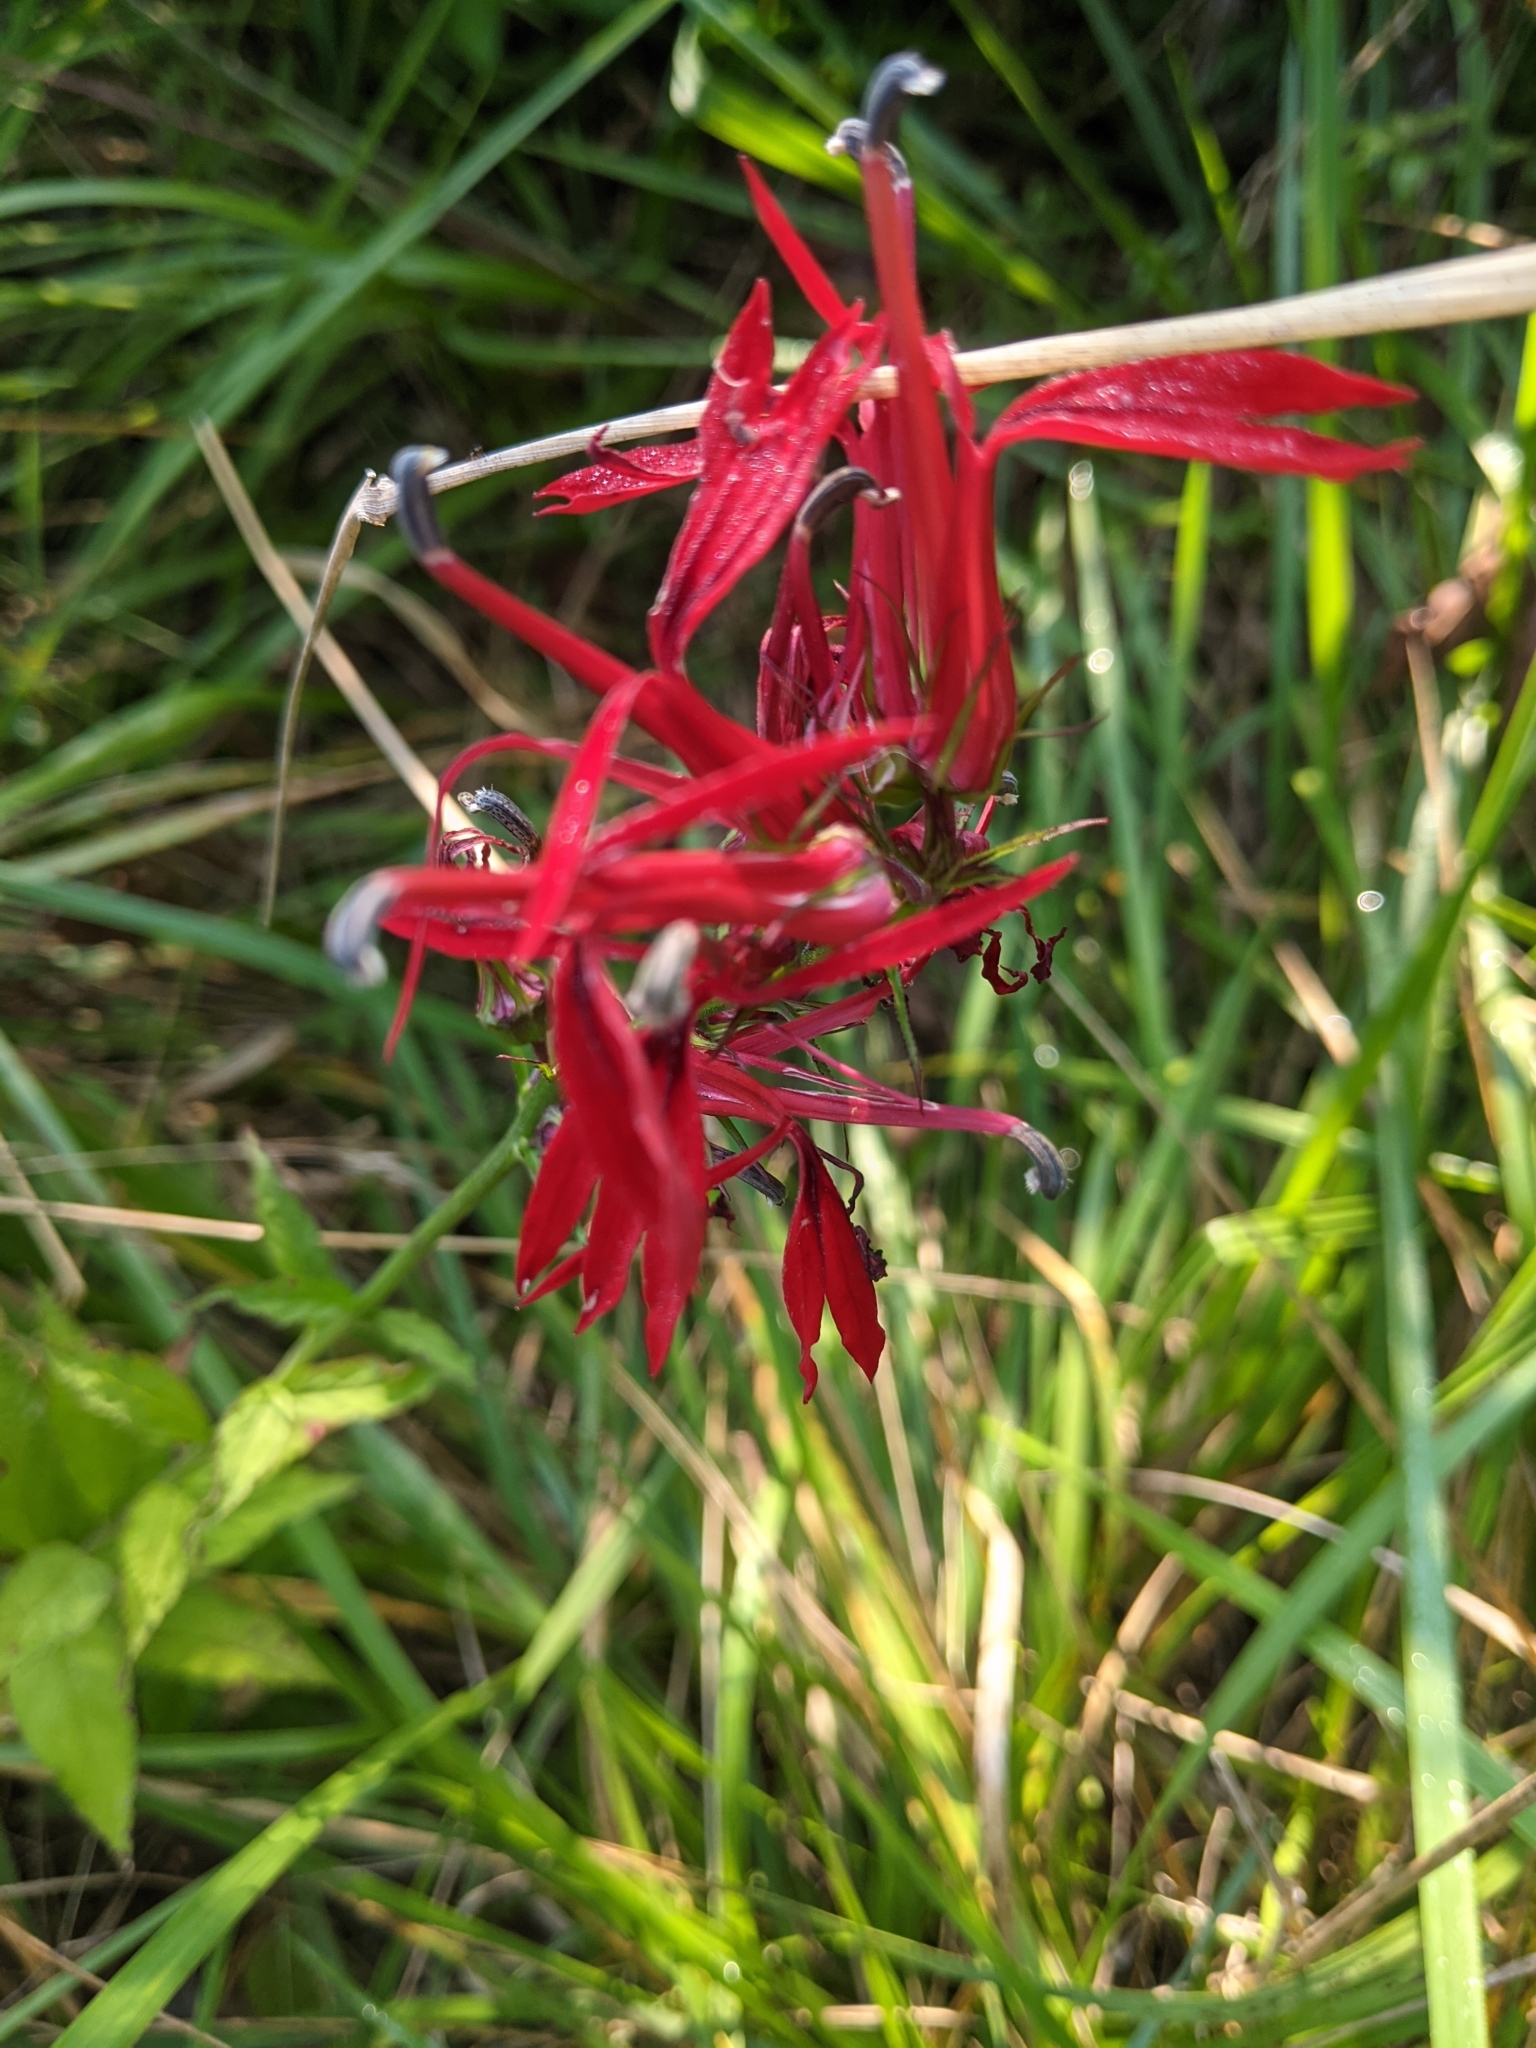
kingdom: Plantae
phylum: Tracheophyta
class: Magnoliopsida
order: Asterales
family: Campanulaceae
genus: Lobelia
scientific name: Lobelia cardinalis
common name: Cardinal flower
